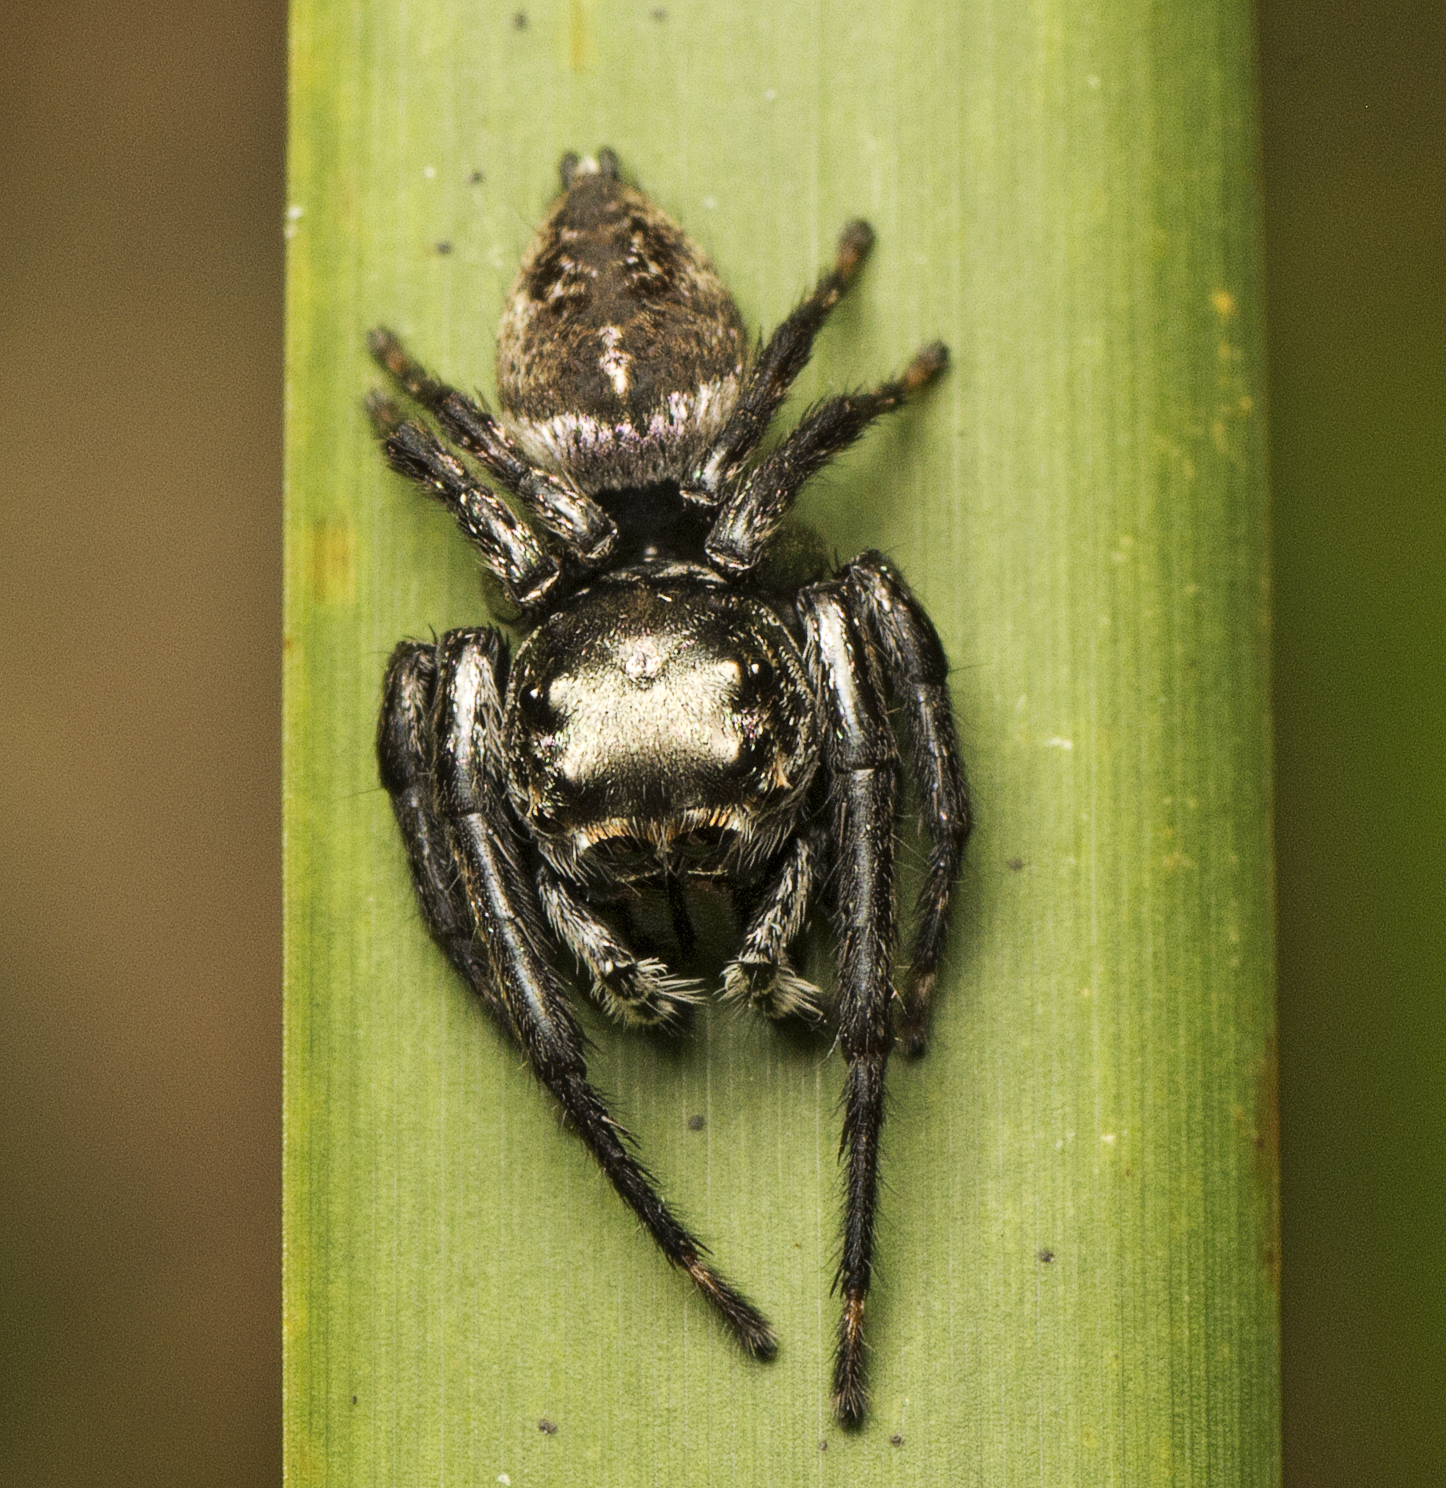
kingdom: Animalia
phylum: Arthropoda
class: Arachnida
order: Araneae
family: Salticidae
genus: Euryattus
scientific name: Euryattus bleekeri
